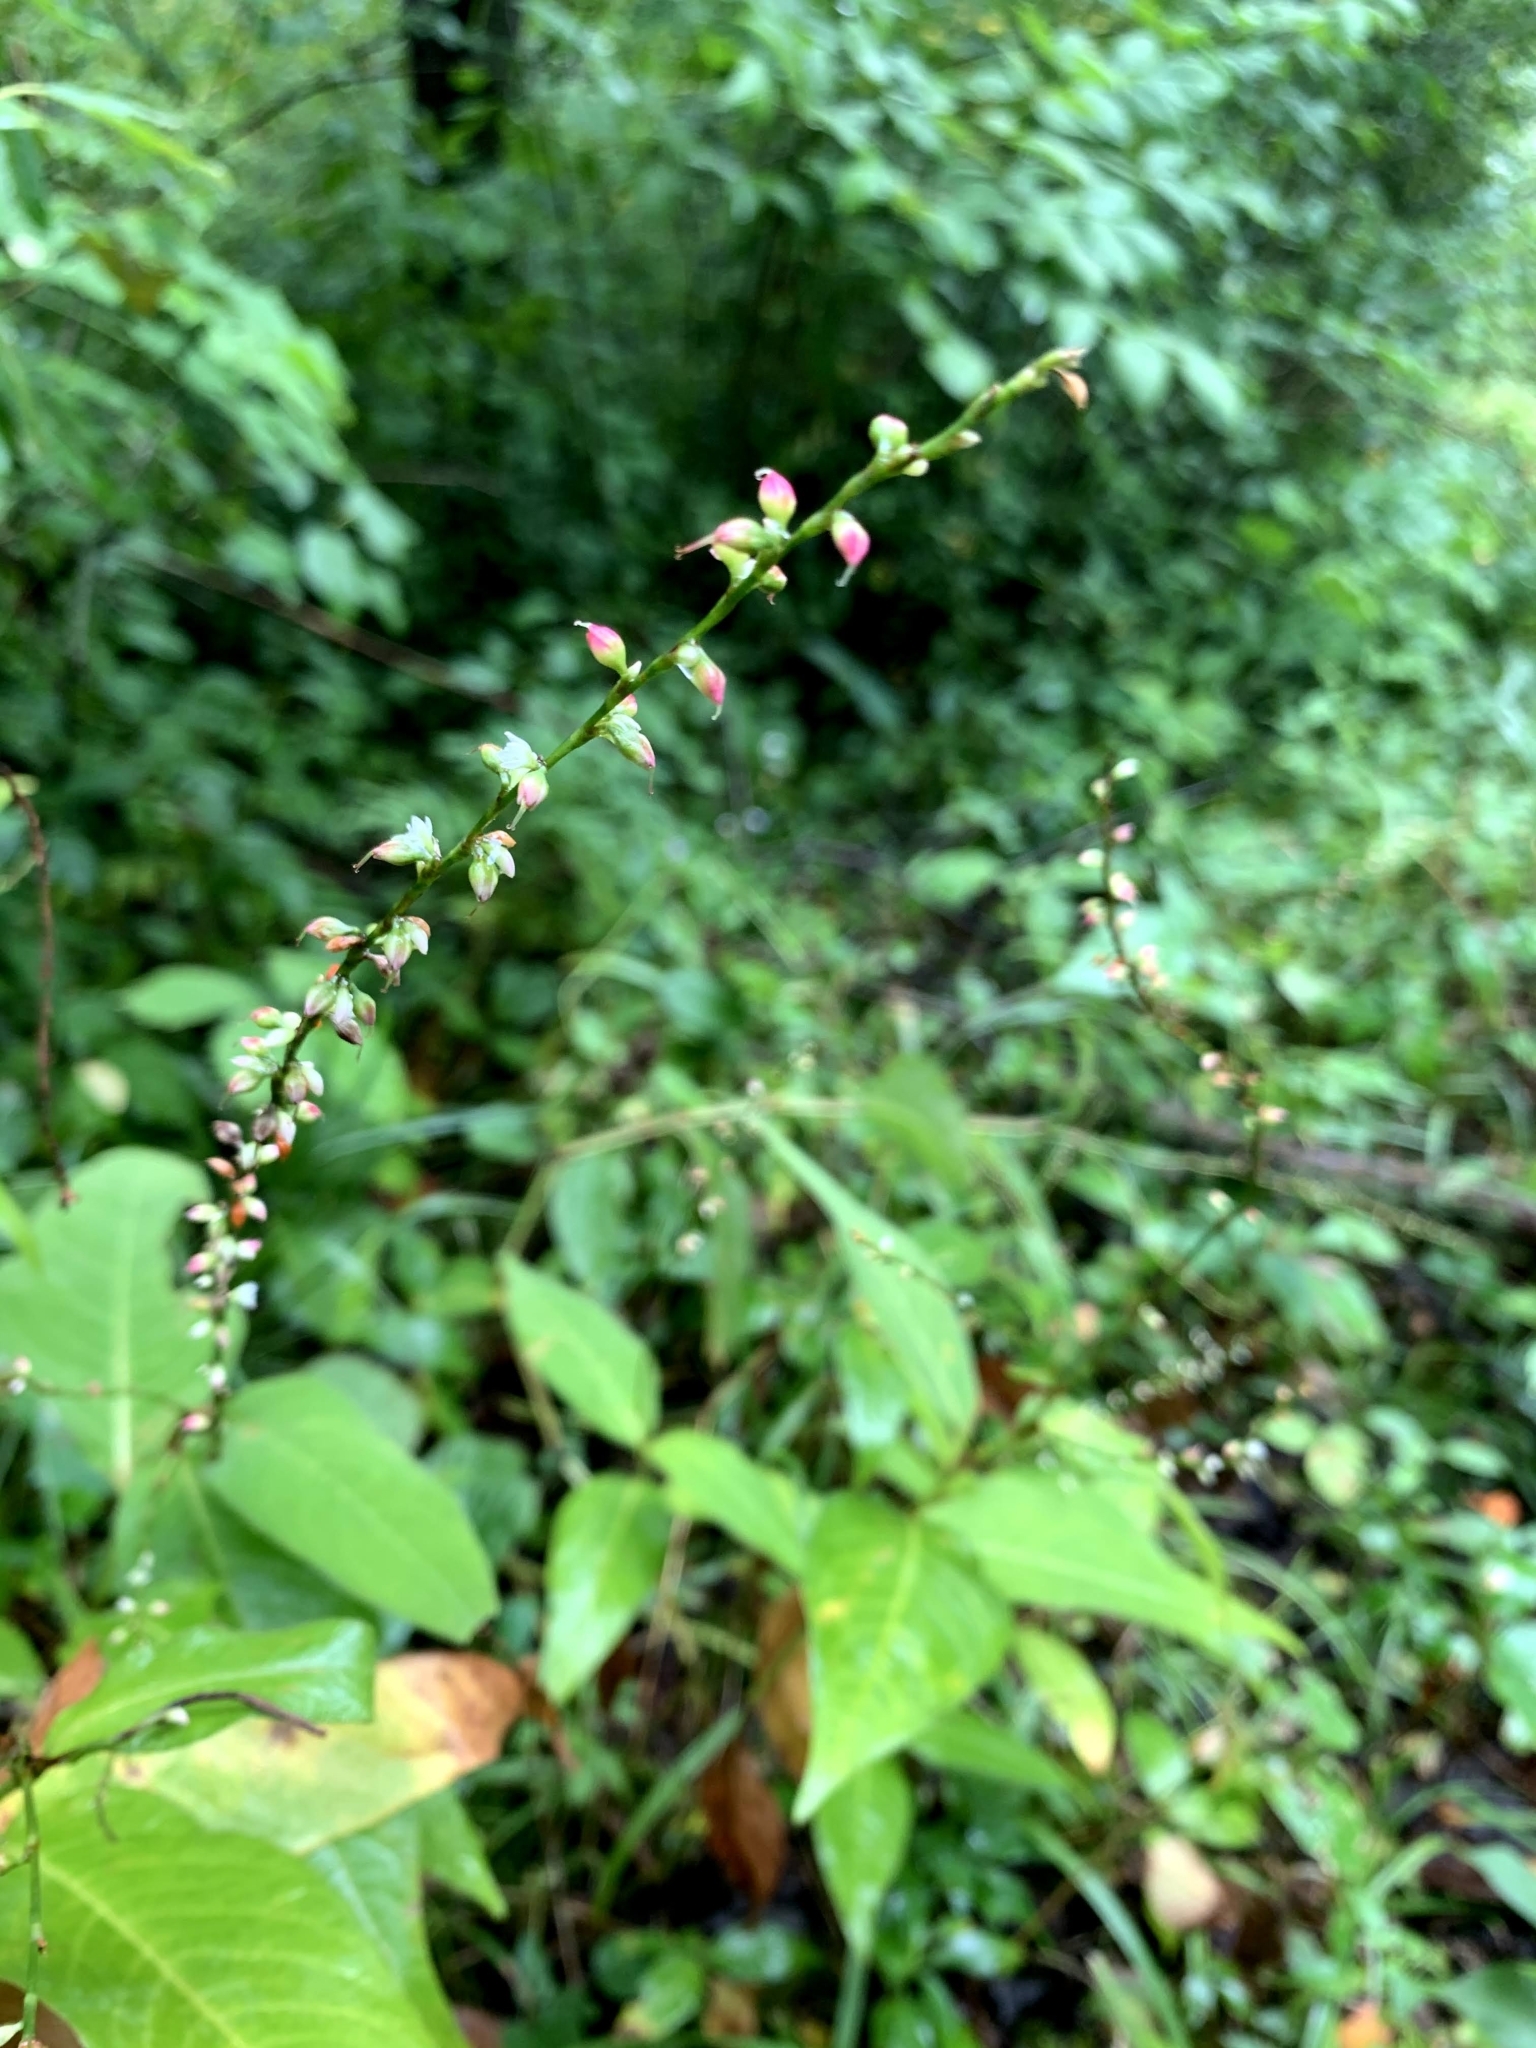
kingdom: Plantae
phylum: Tracheophyta
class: Magnoliopsida
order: Caryophyllales
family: Polygonaceae
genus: Persicaria
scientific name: Persicaria virginiana
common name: Jumpseed
